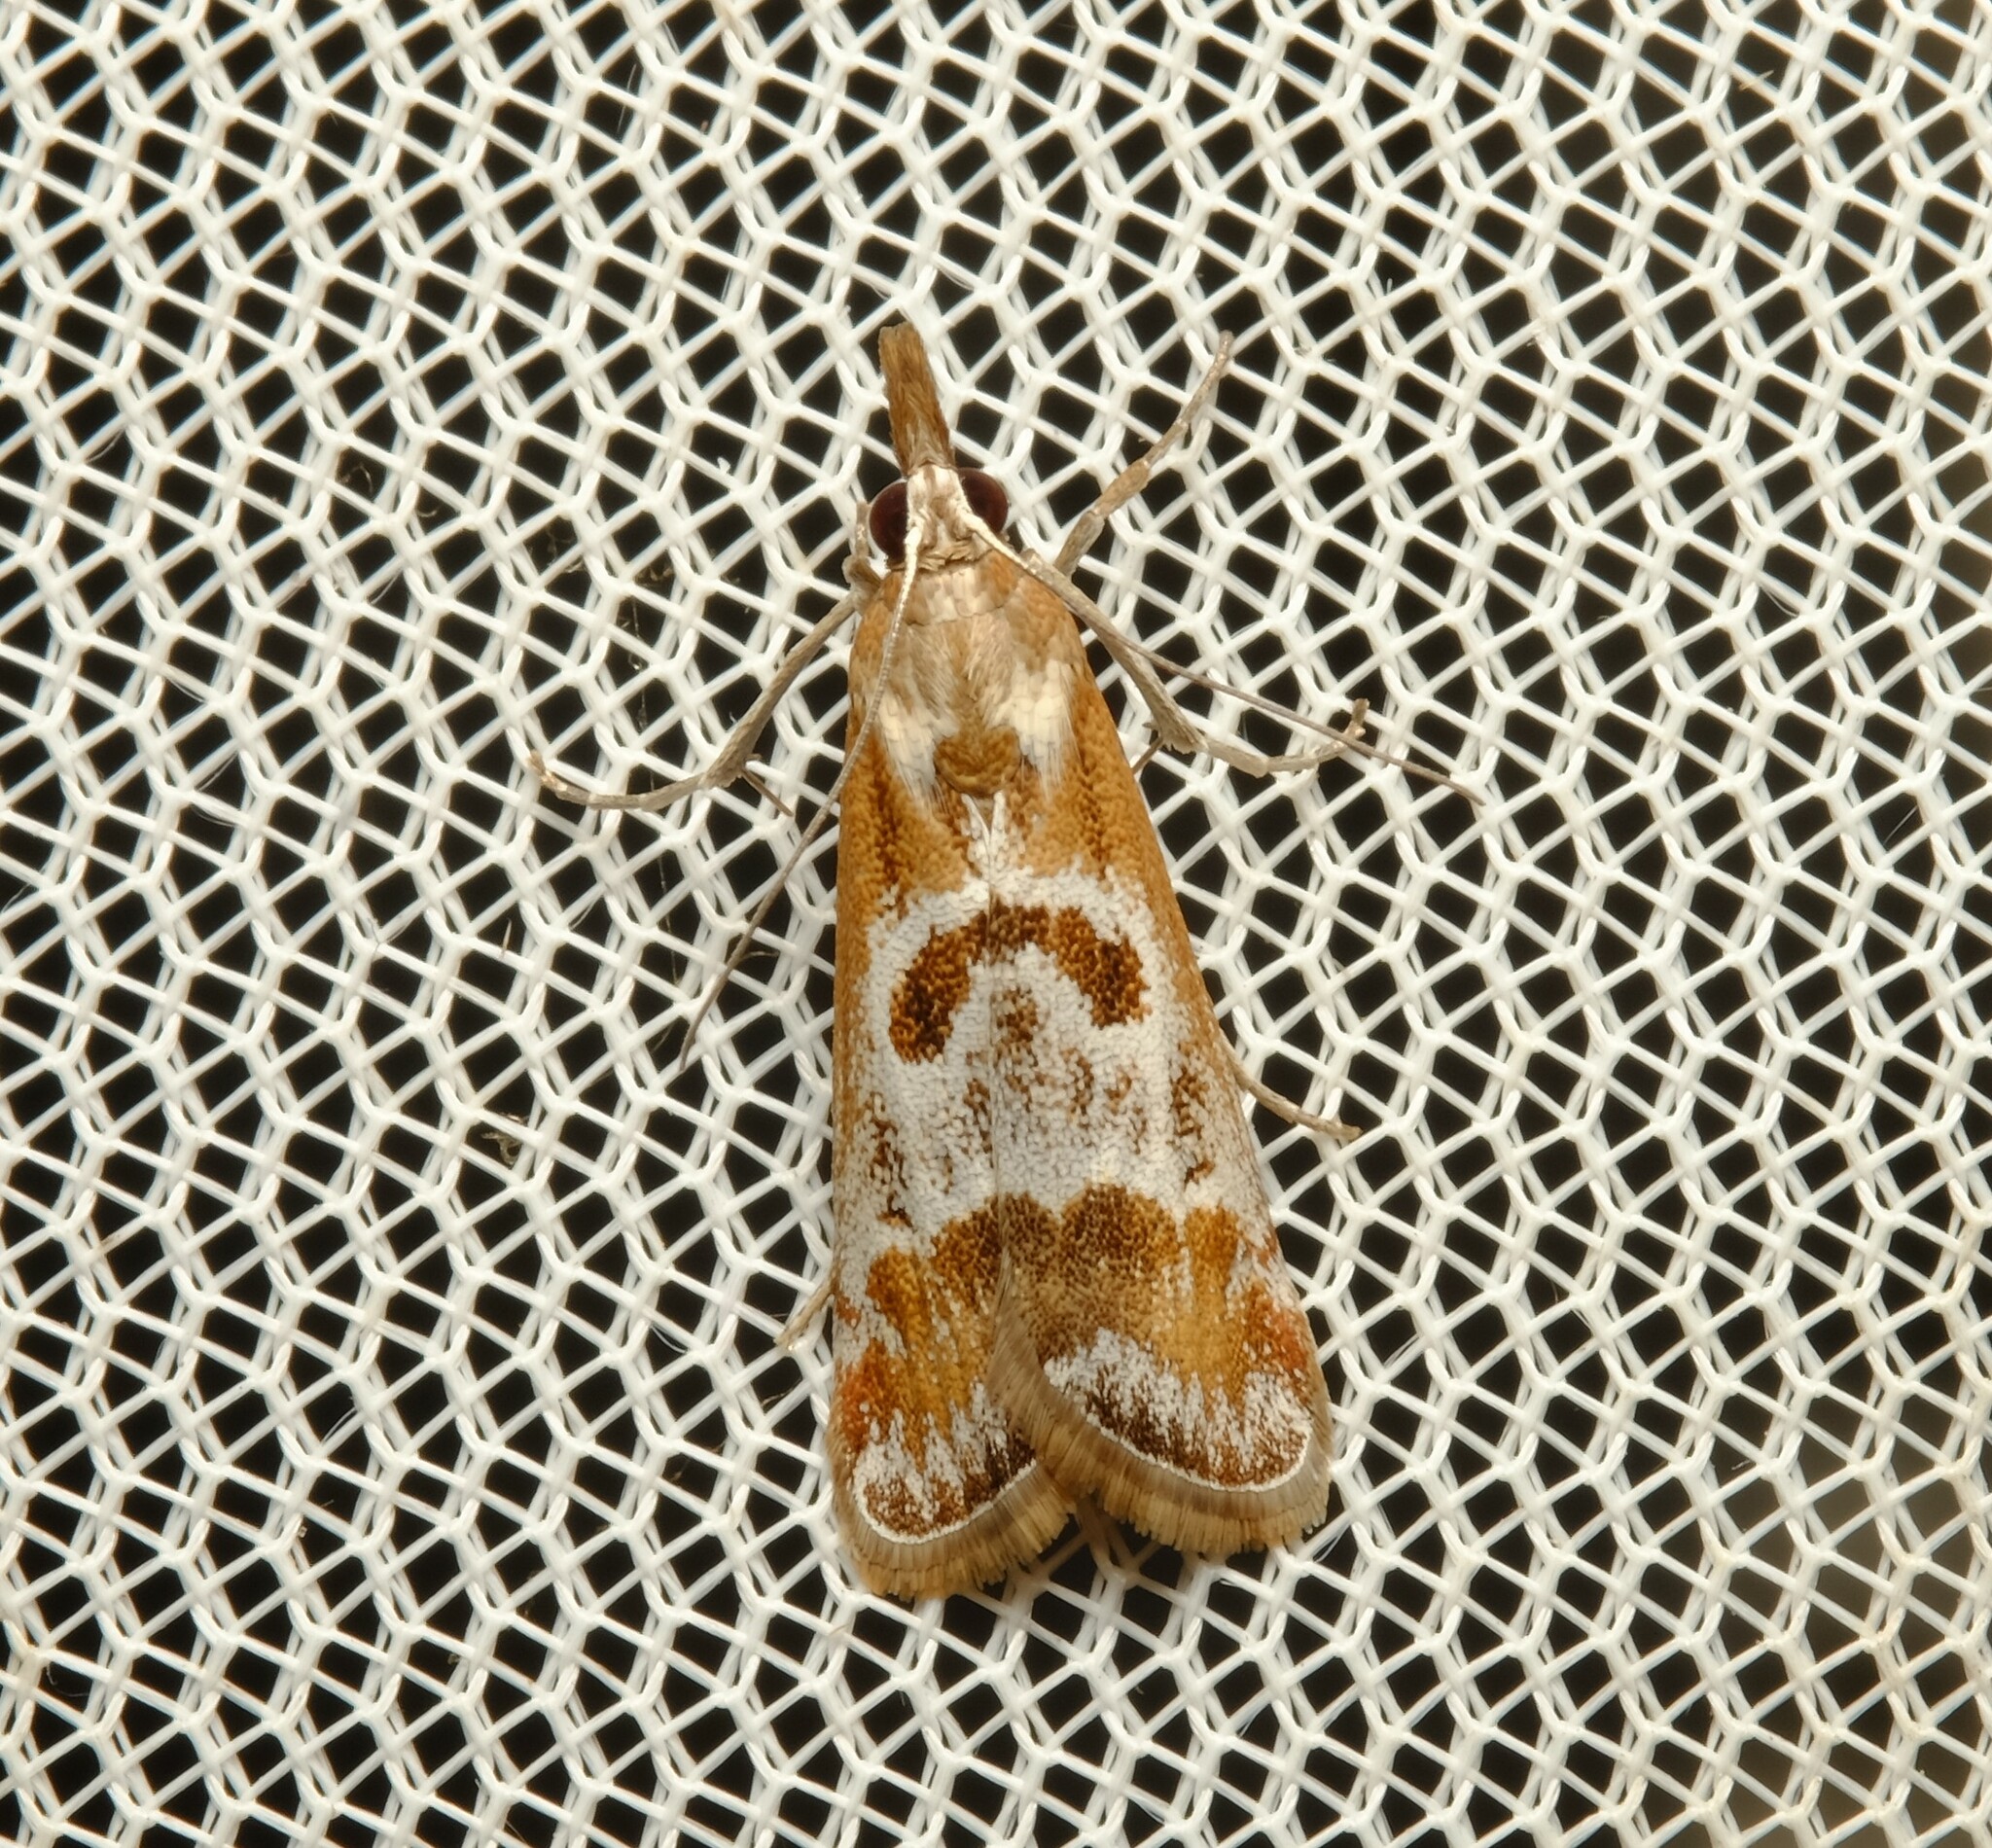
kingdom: Animalia
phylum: Arthropoda
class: Insecta
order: Lepidoptera
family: Crambidae
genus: Syntonarcha
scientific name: Syntonarcha iriastis
